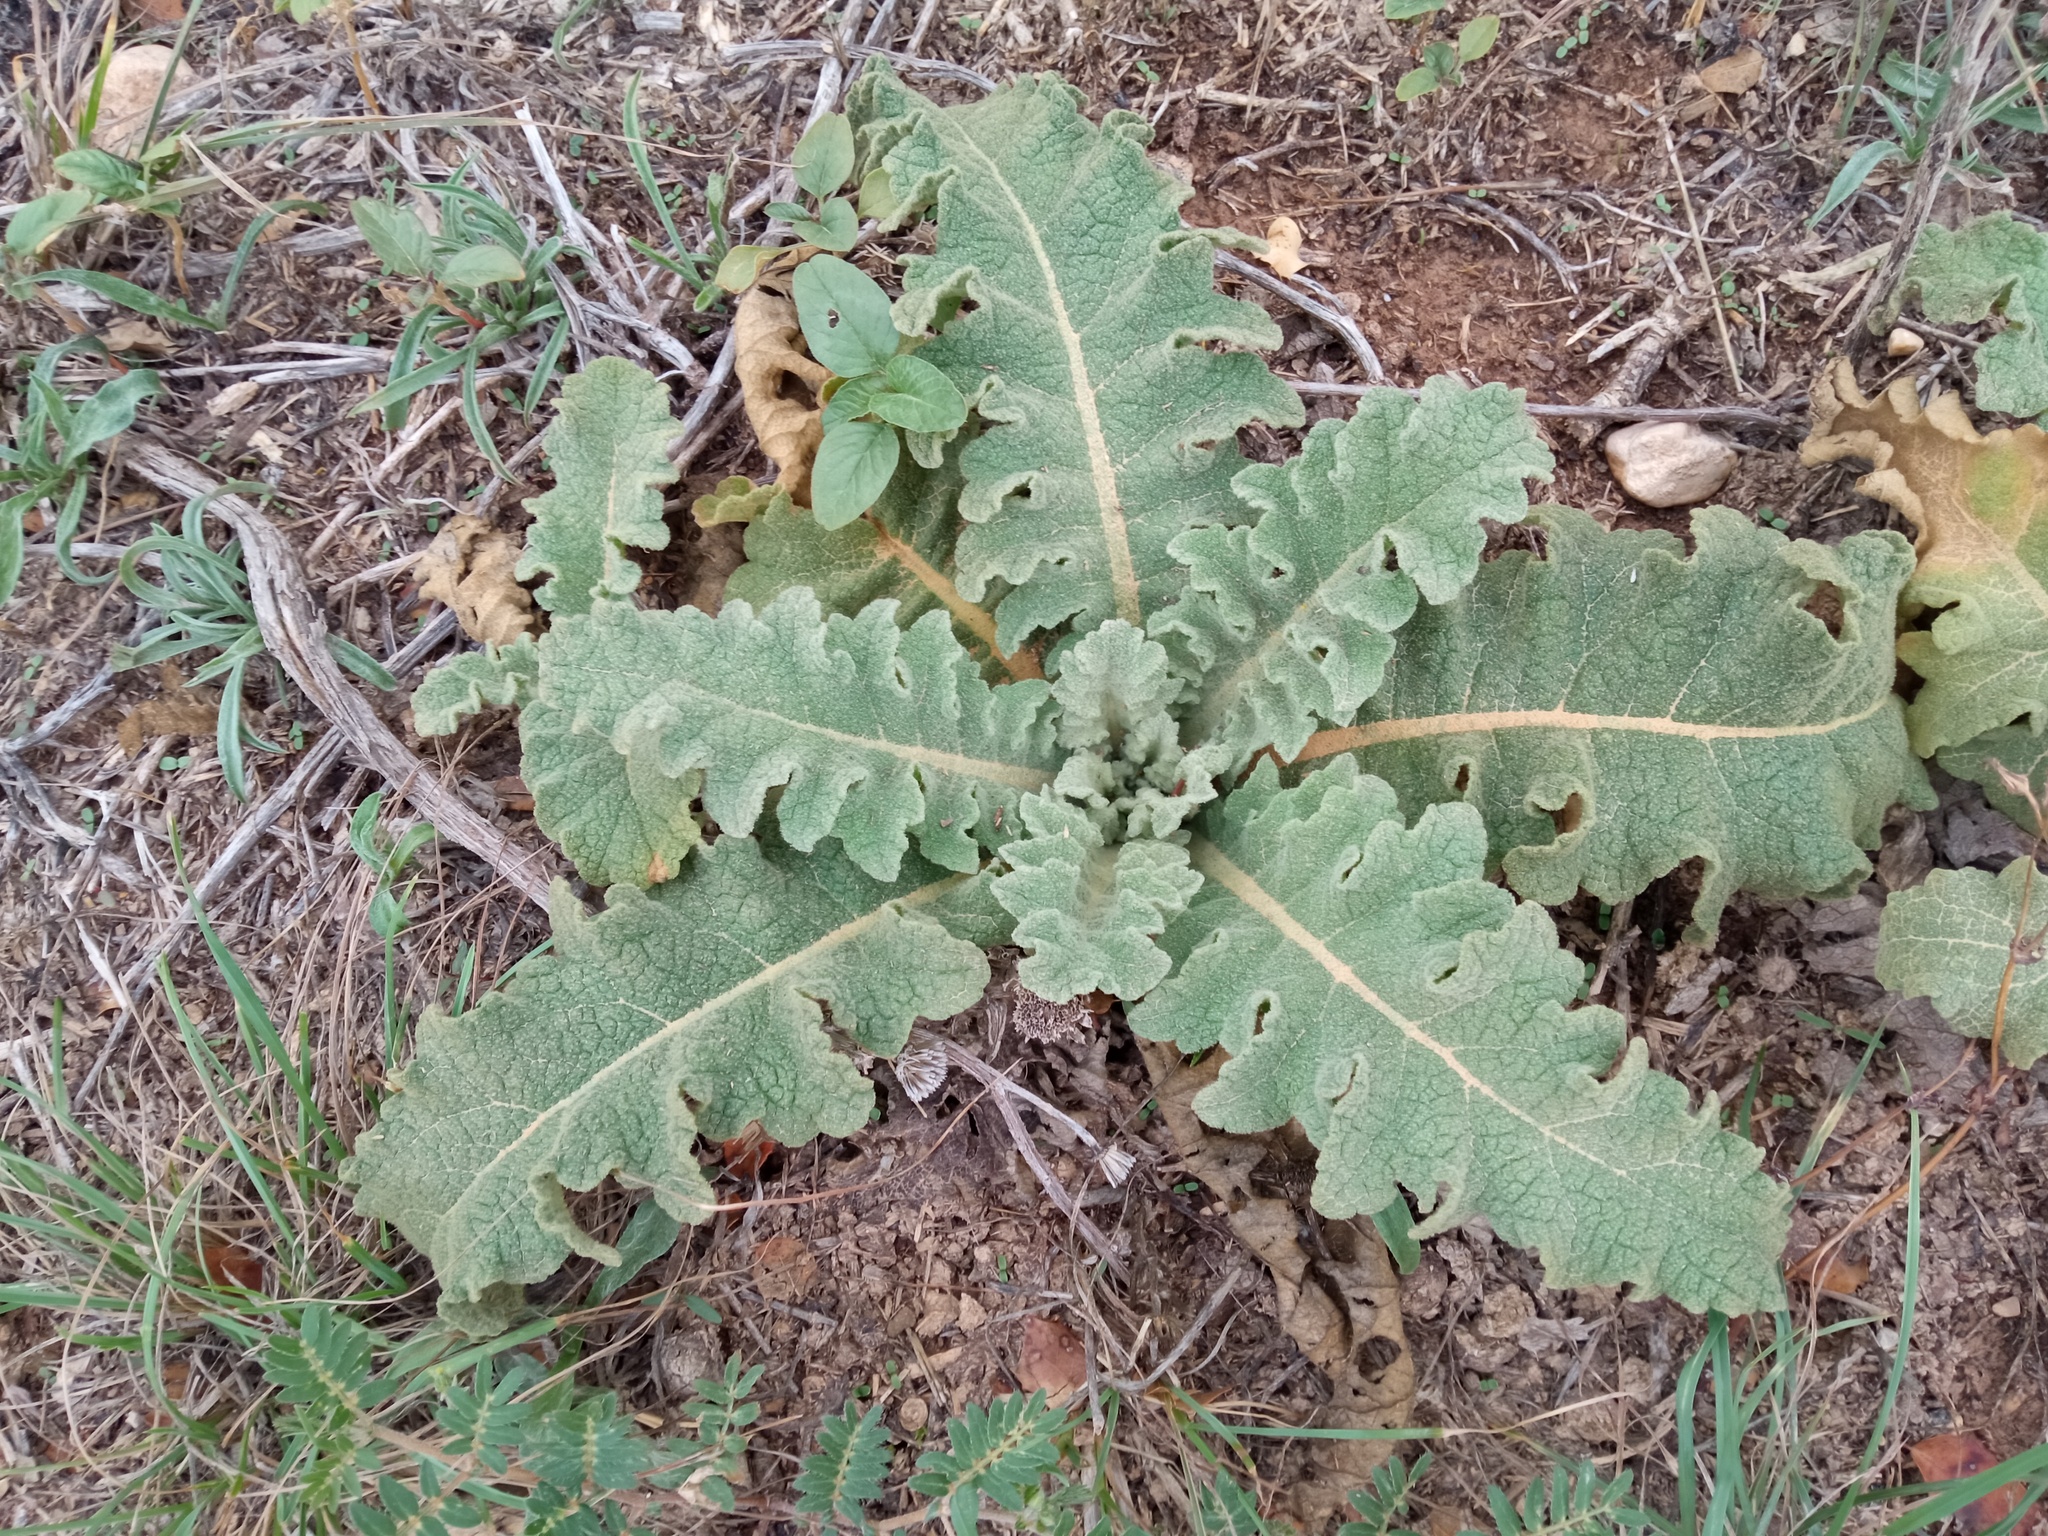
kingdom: Plantae
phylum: Tracheophyta
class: Magnoliopsida
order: Lamiales
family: Scrophulariaceae
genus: Verbascum
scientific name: Verbascum sinuatum
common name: Wavyleaf mullein
